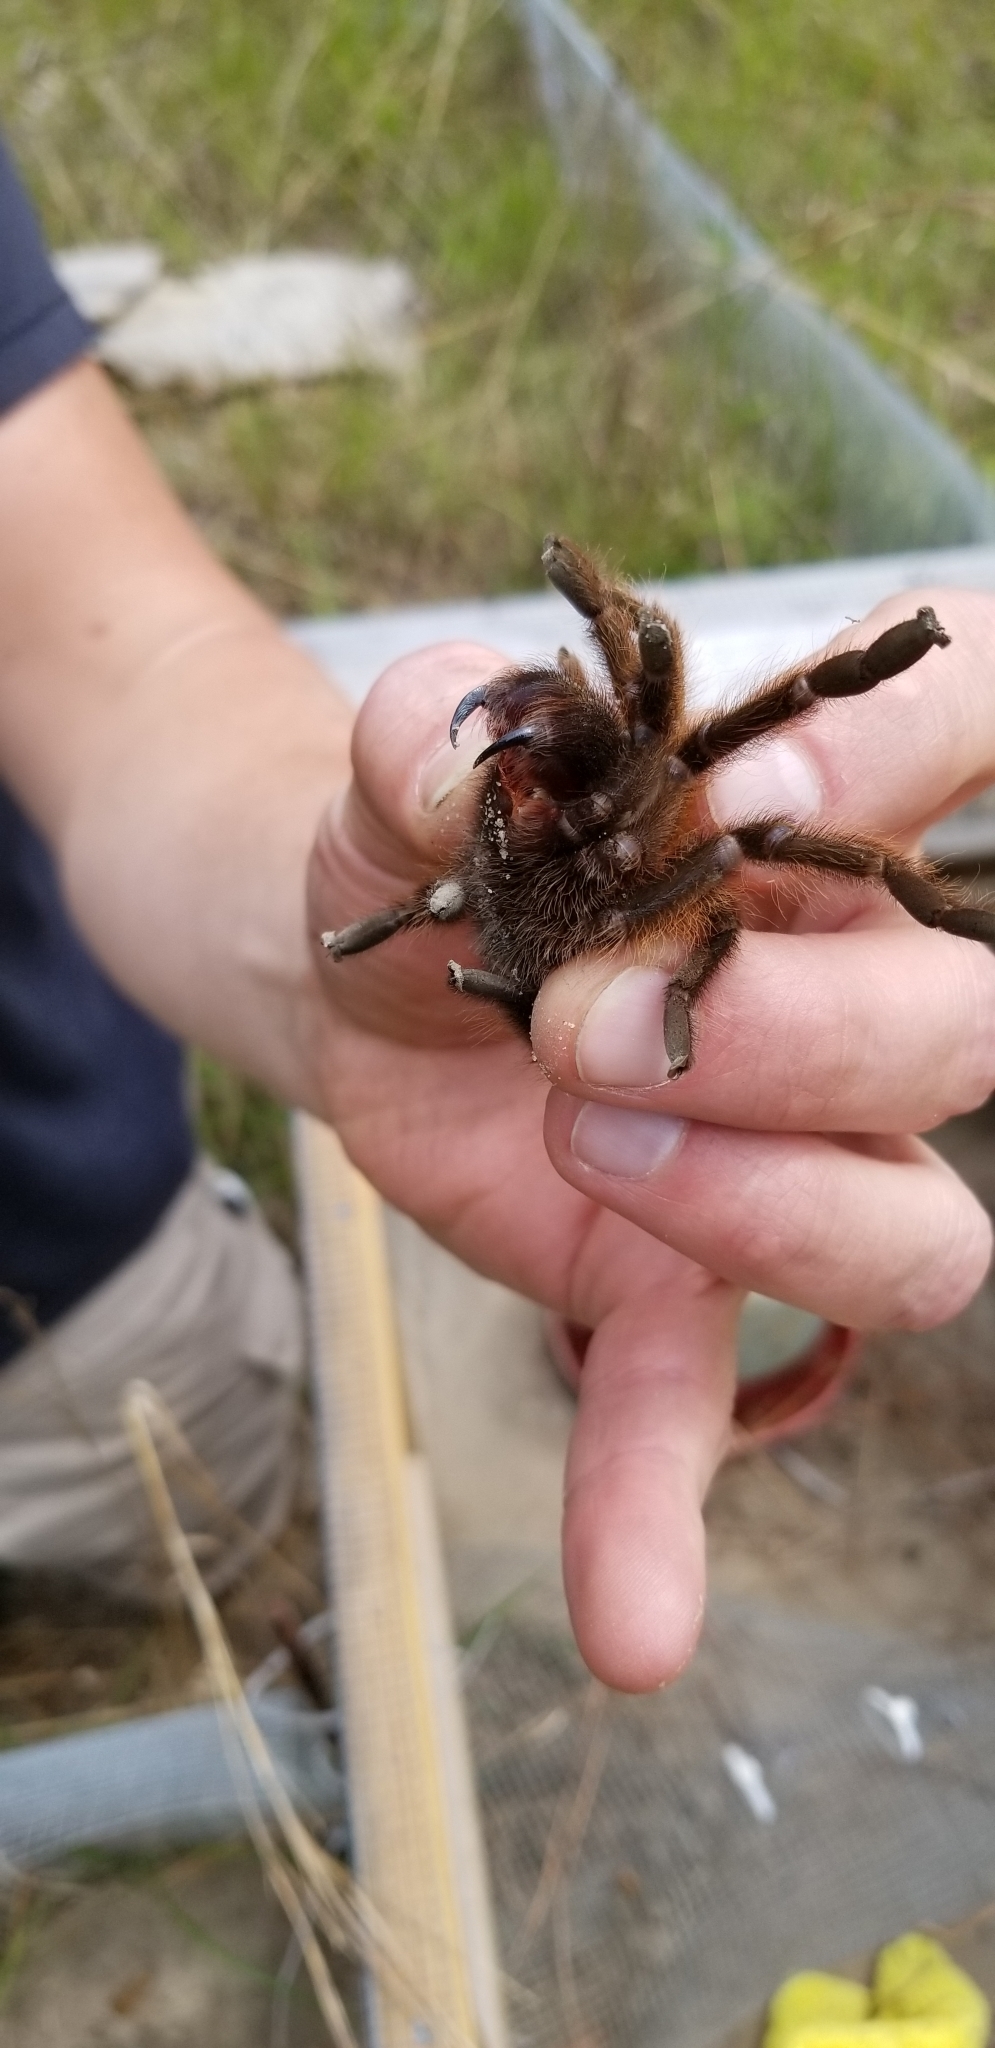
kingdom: Animalia
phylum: Arthropoda
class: Arachnida
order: Araneae
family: Theraphosidae
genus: Aphonopelma
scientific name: Aphonopelma hentzi
